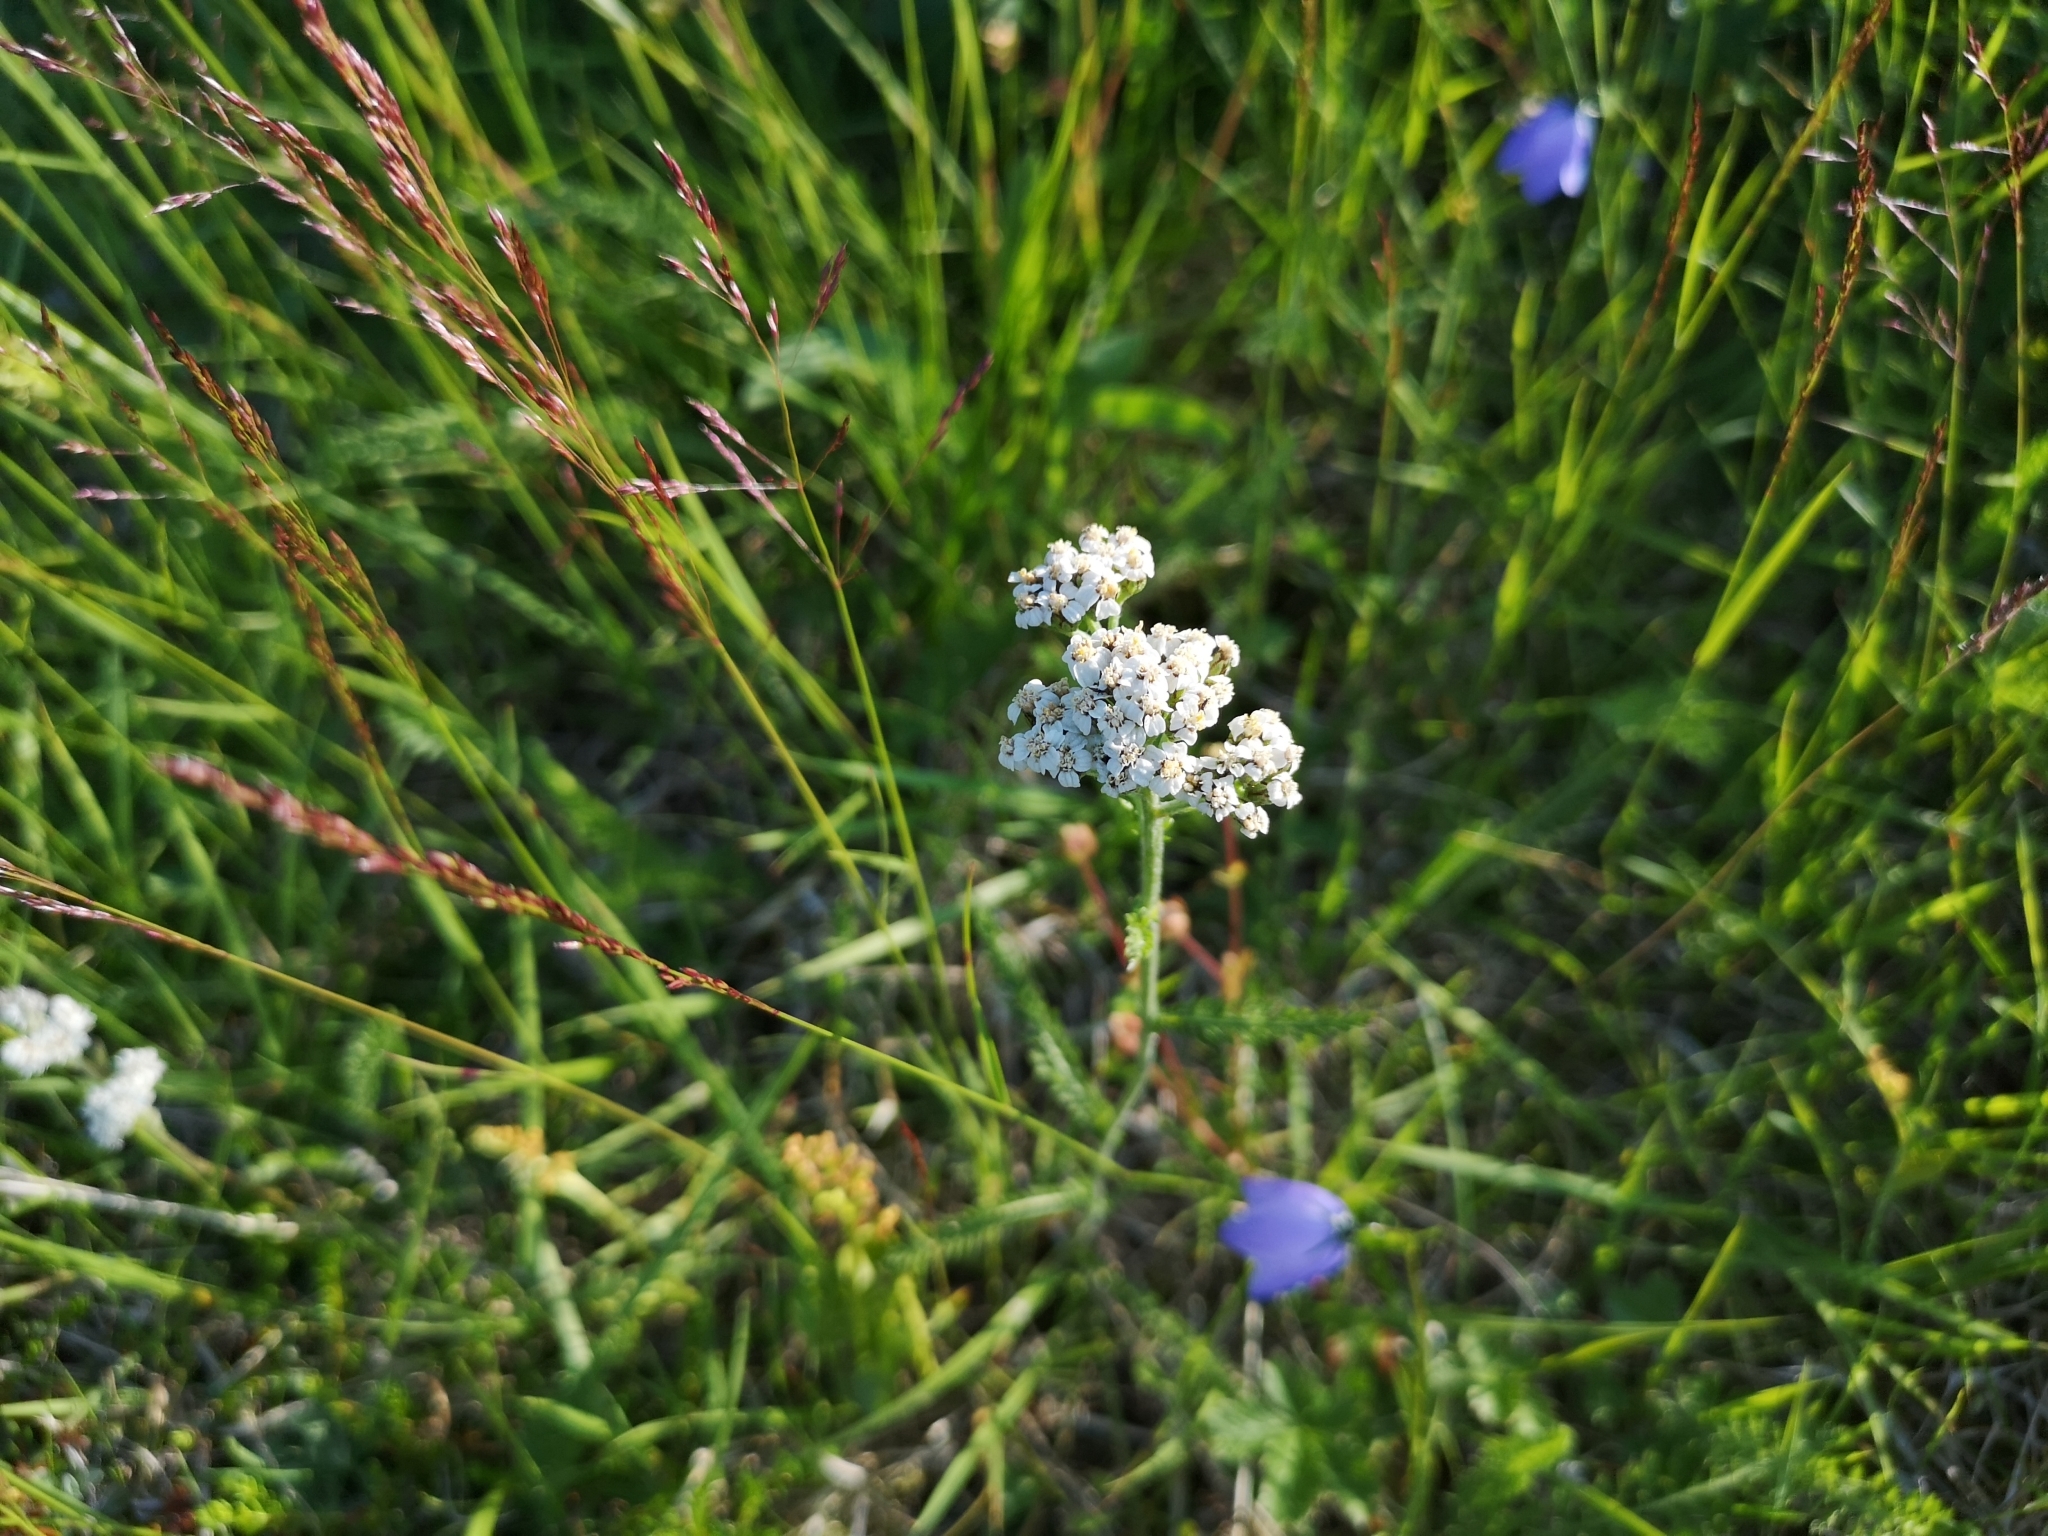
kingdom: Plantae
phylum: Tracheophyta
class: Magnoliopsida
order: Asterales
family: Asteraceae
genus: Achillea
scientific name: Achillea millefolium
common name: Yarrow
